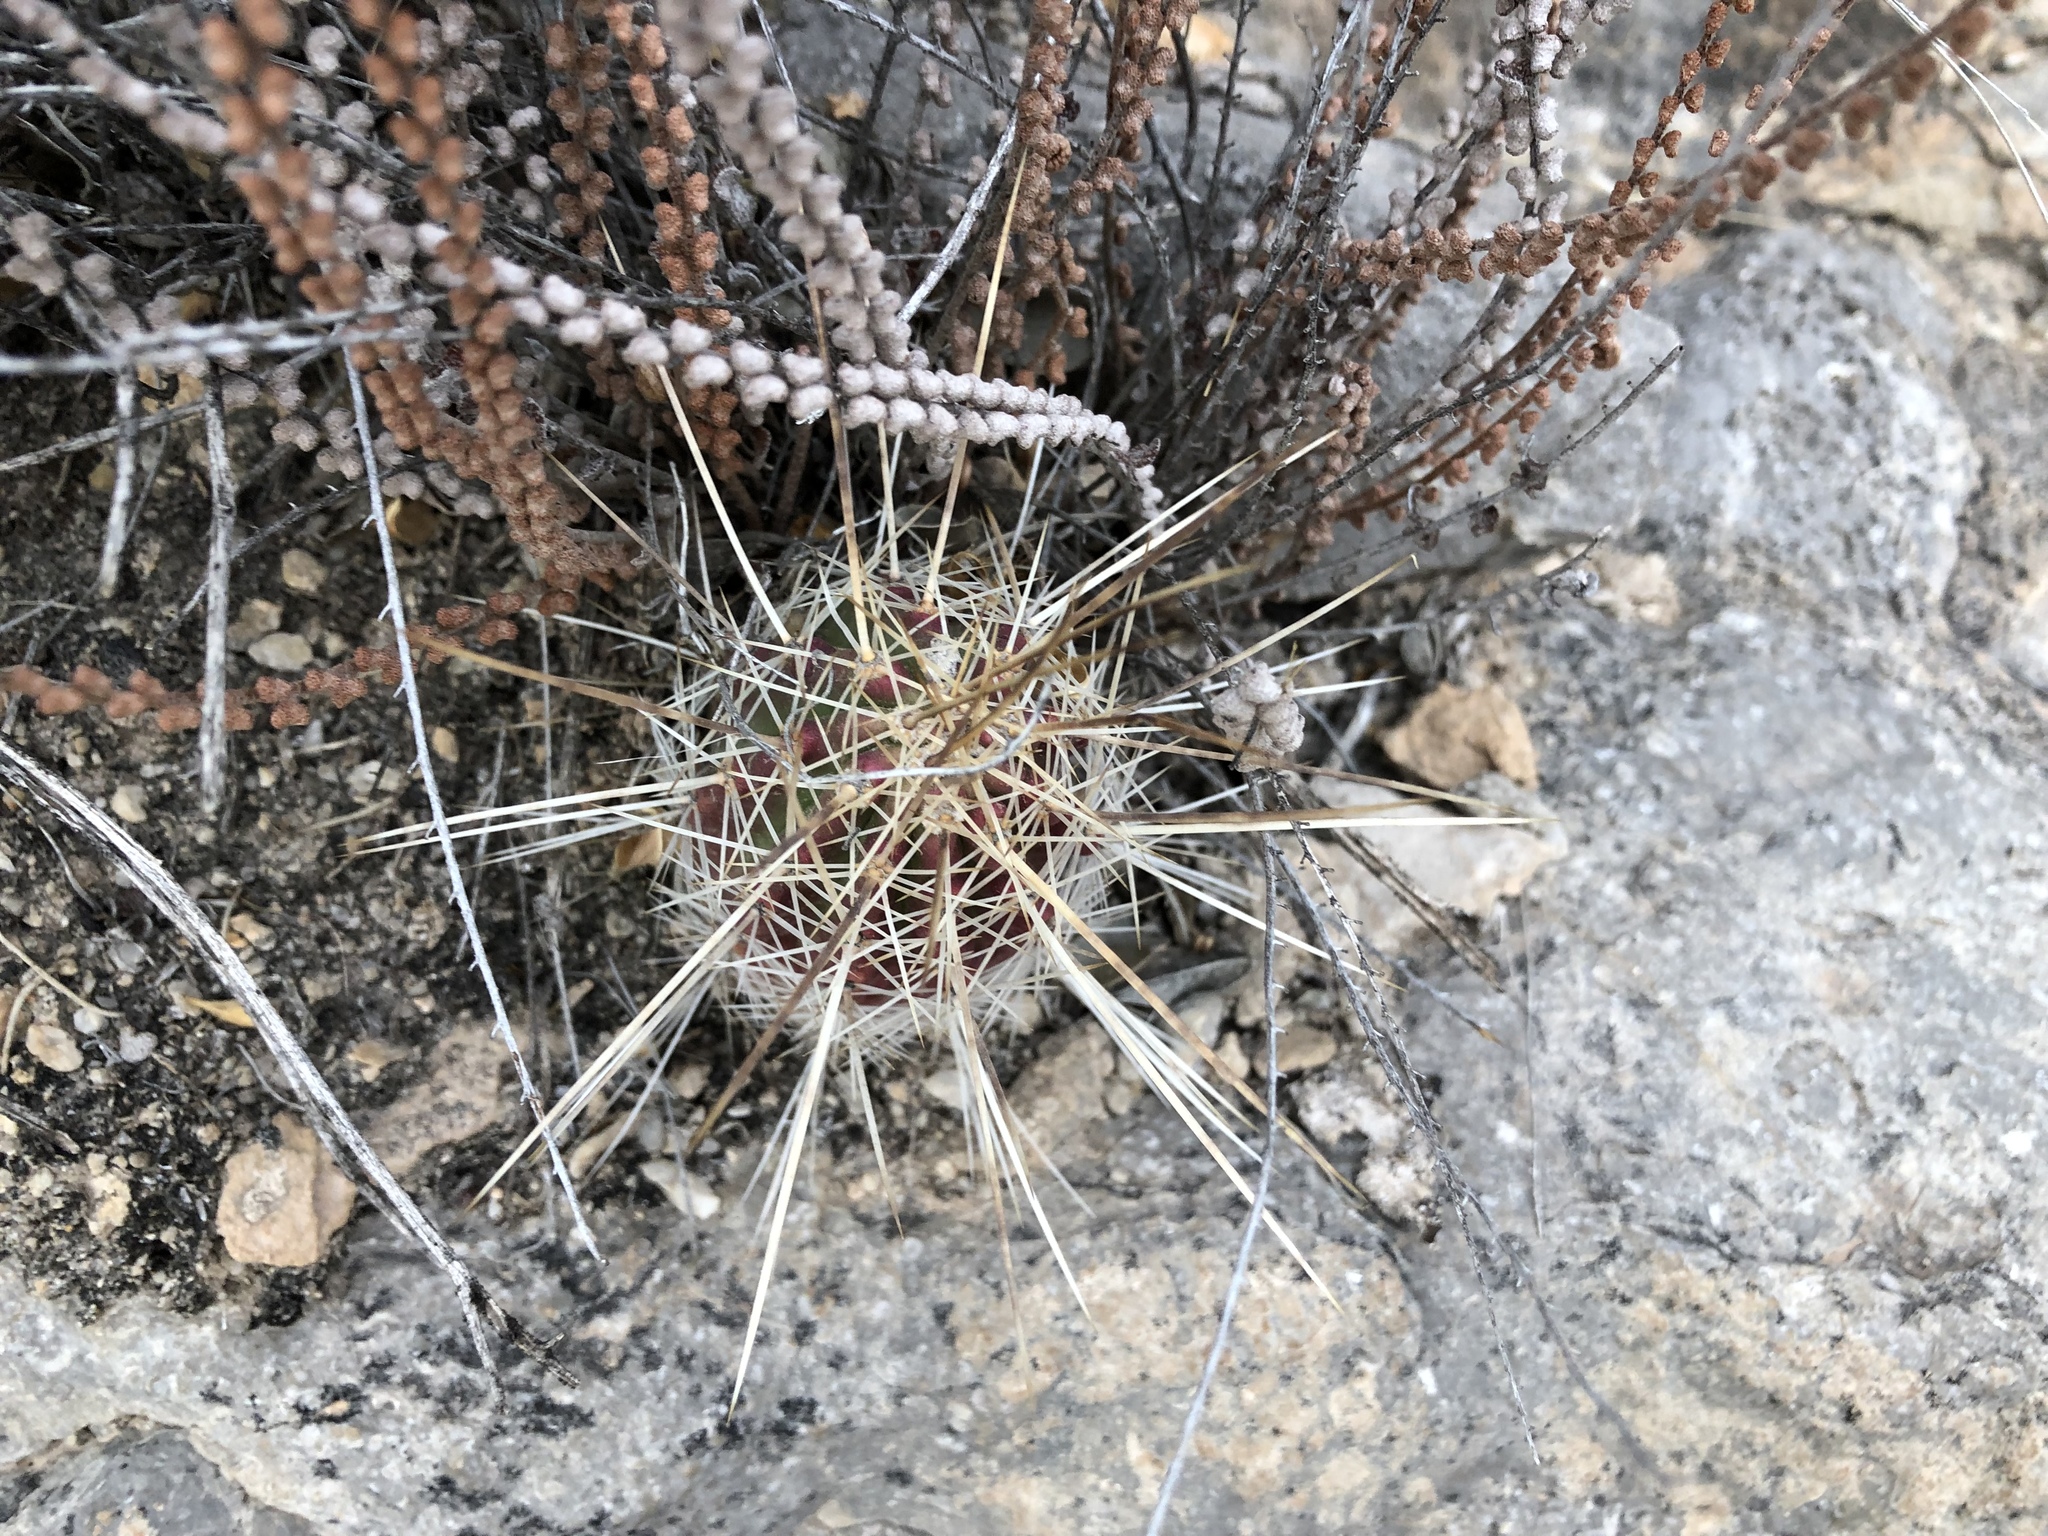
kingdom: Plantae
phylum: Tracheophyta
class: Magnoliopsida
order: Caryophyllales
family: Cactaceae
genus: Echinocereus
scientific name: Echinocereus stramineus
